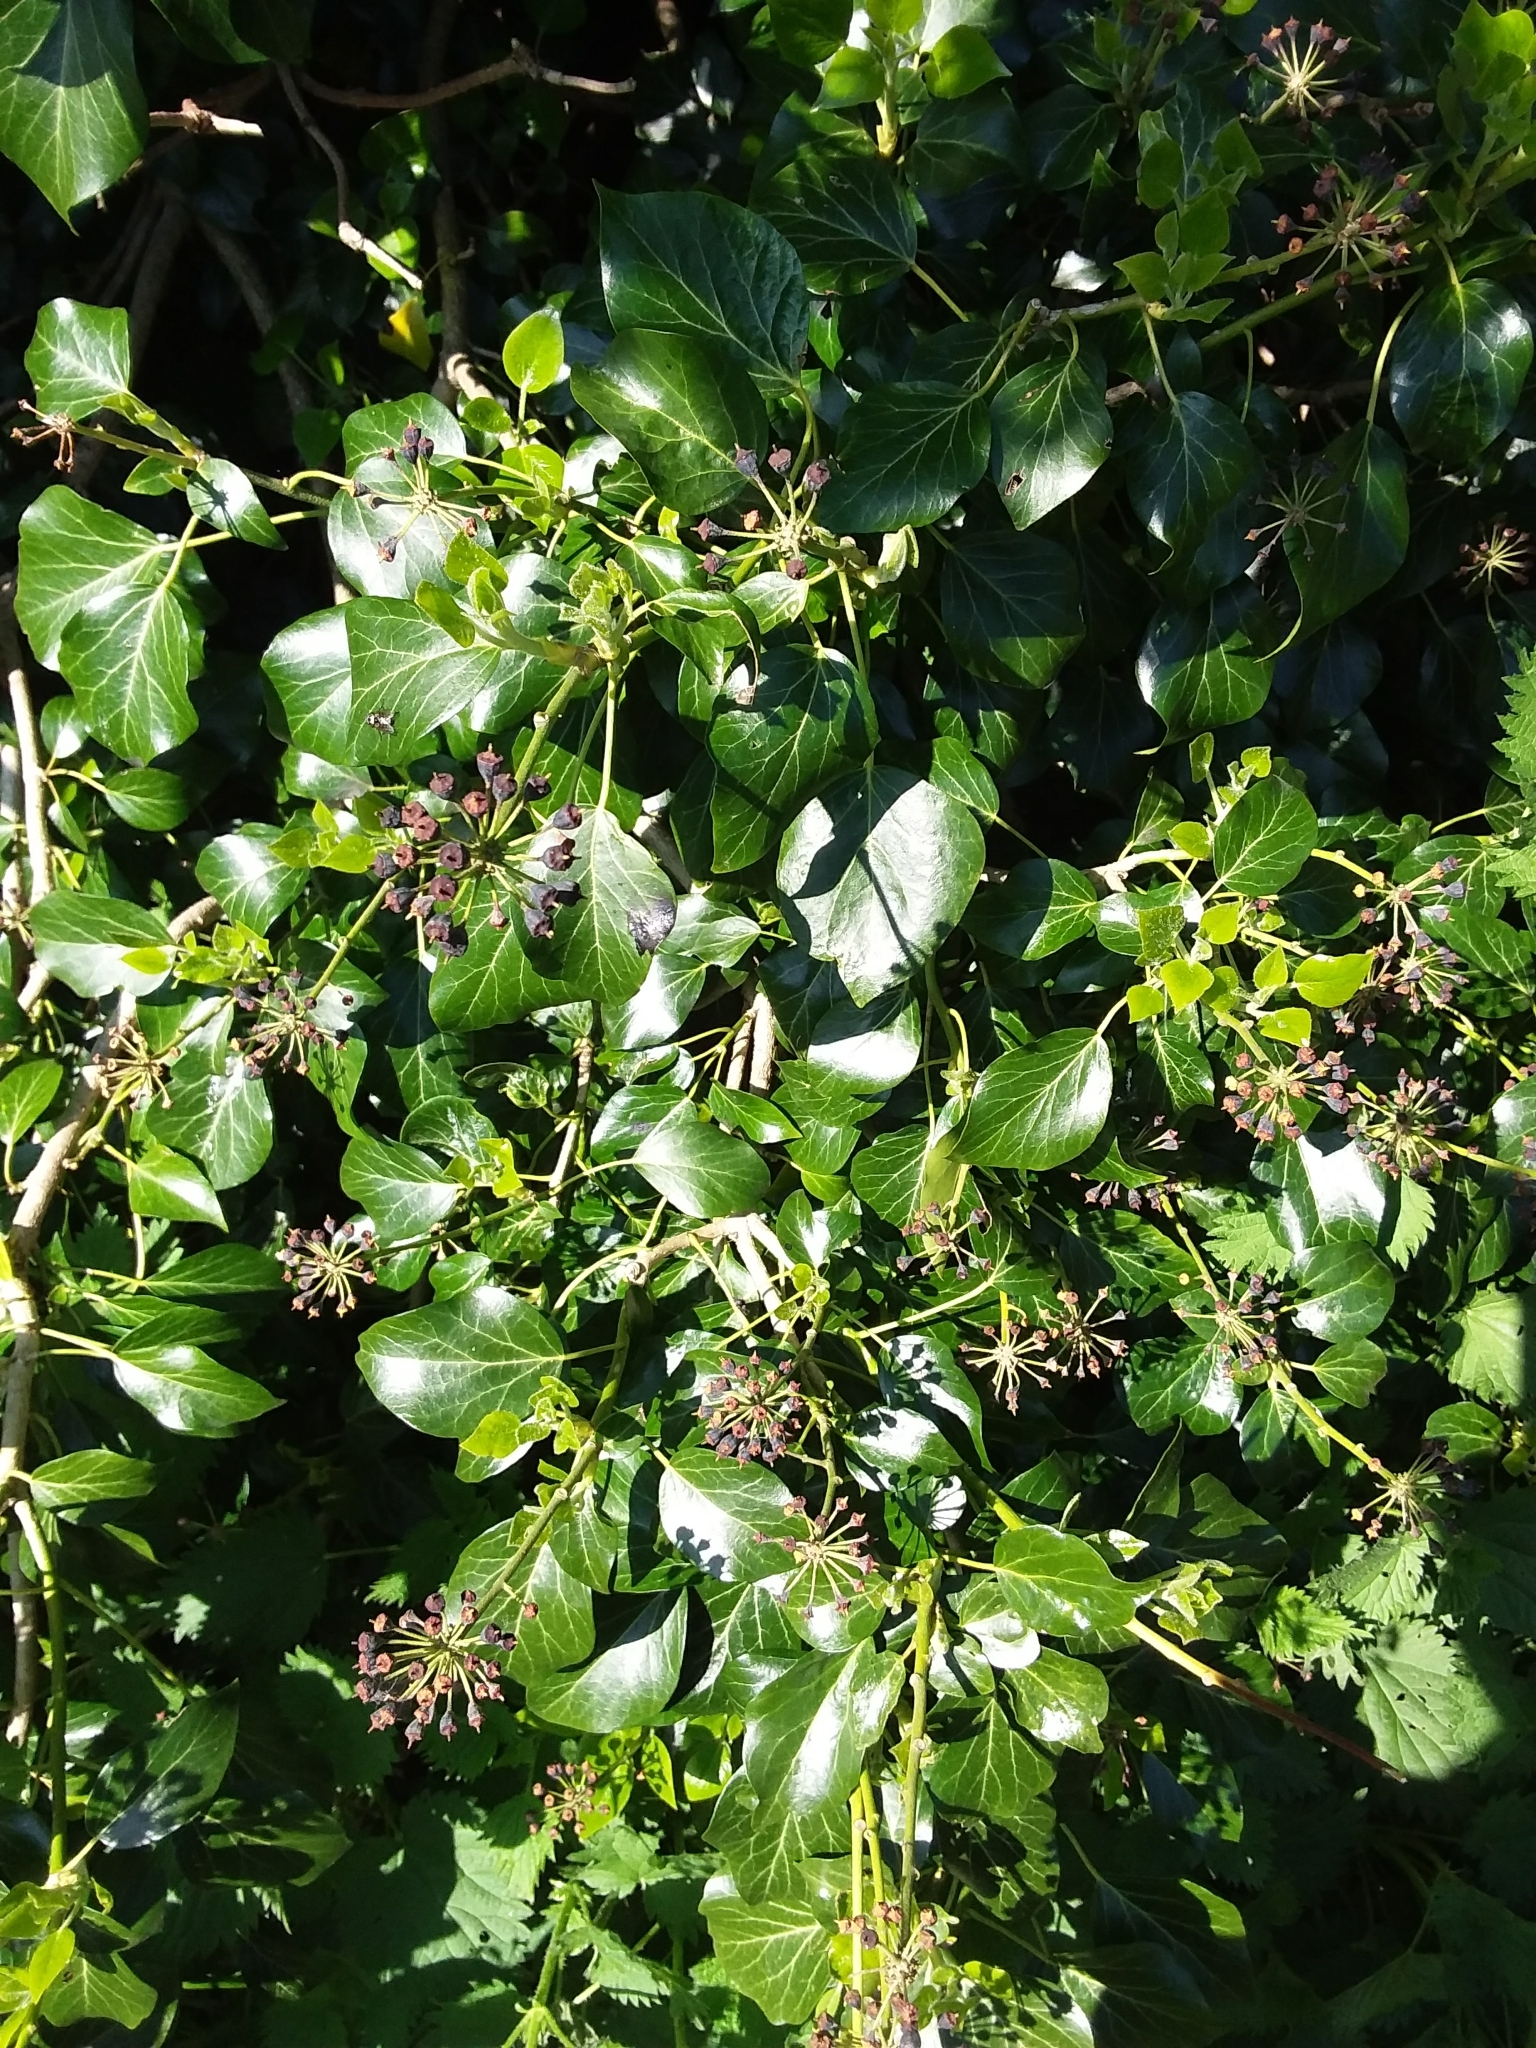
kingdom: Plantae
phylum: Tracheophyta
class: Magnoliopsida
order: Apiales
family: Araliaceae
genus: Hedera
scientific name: Hedera helix
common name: Ivy
